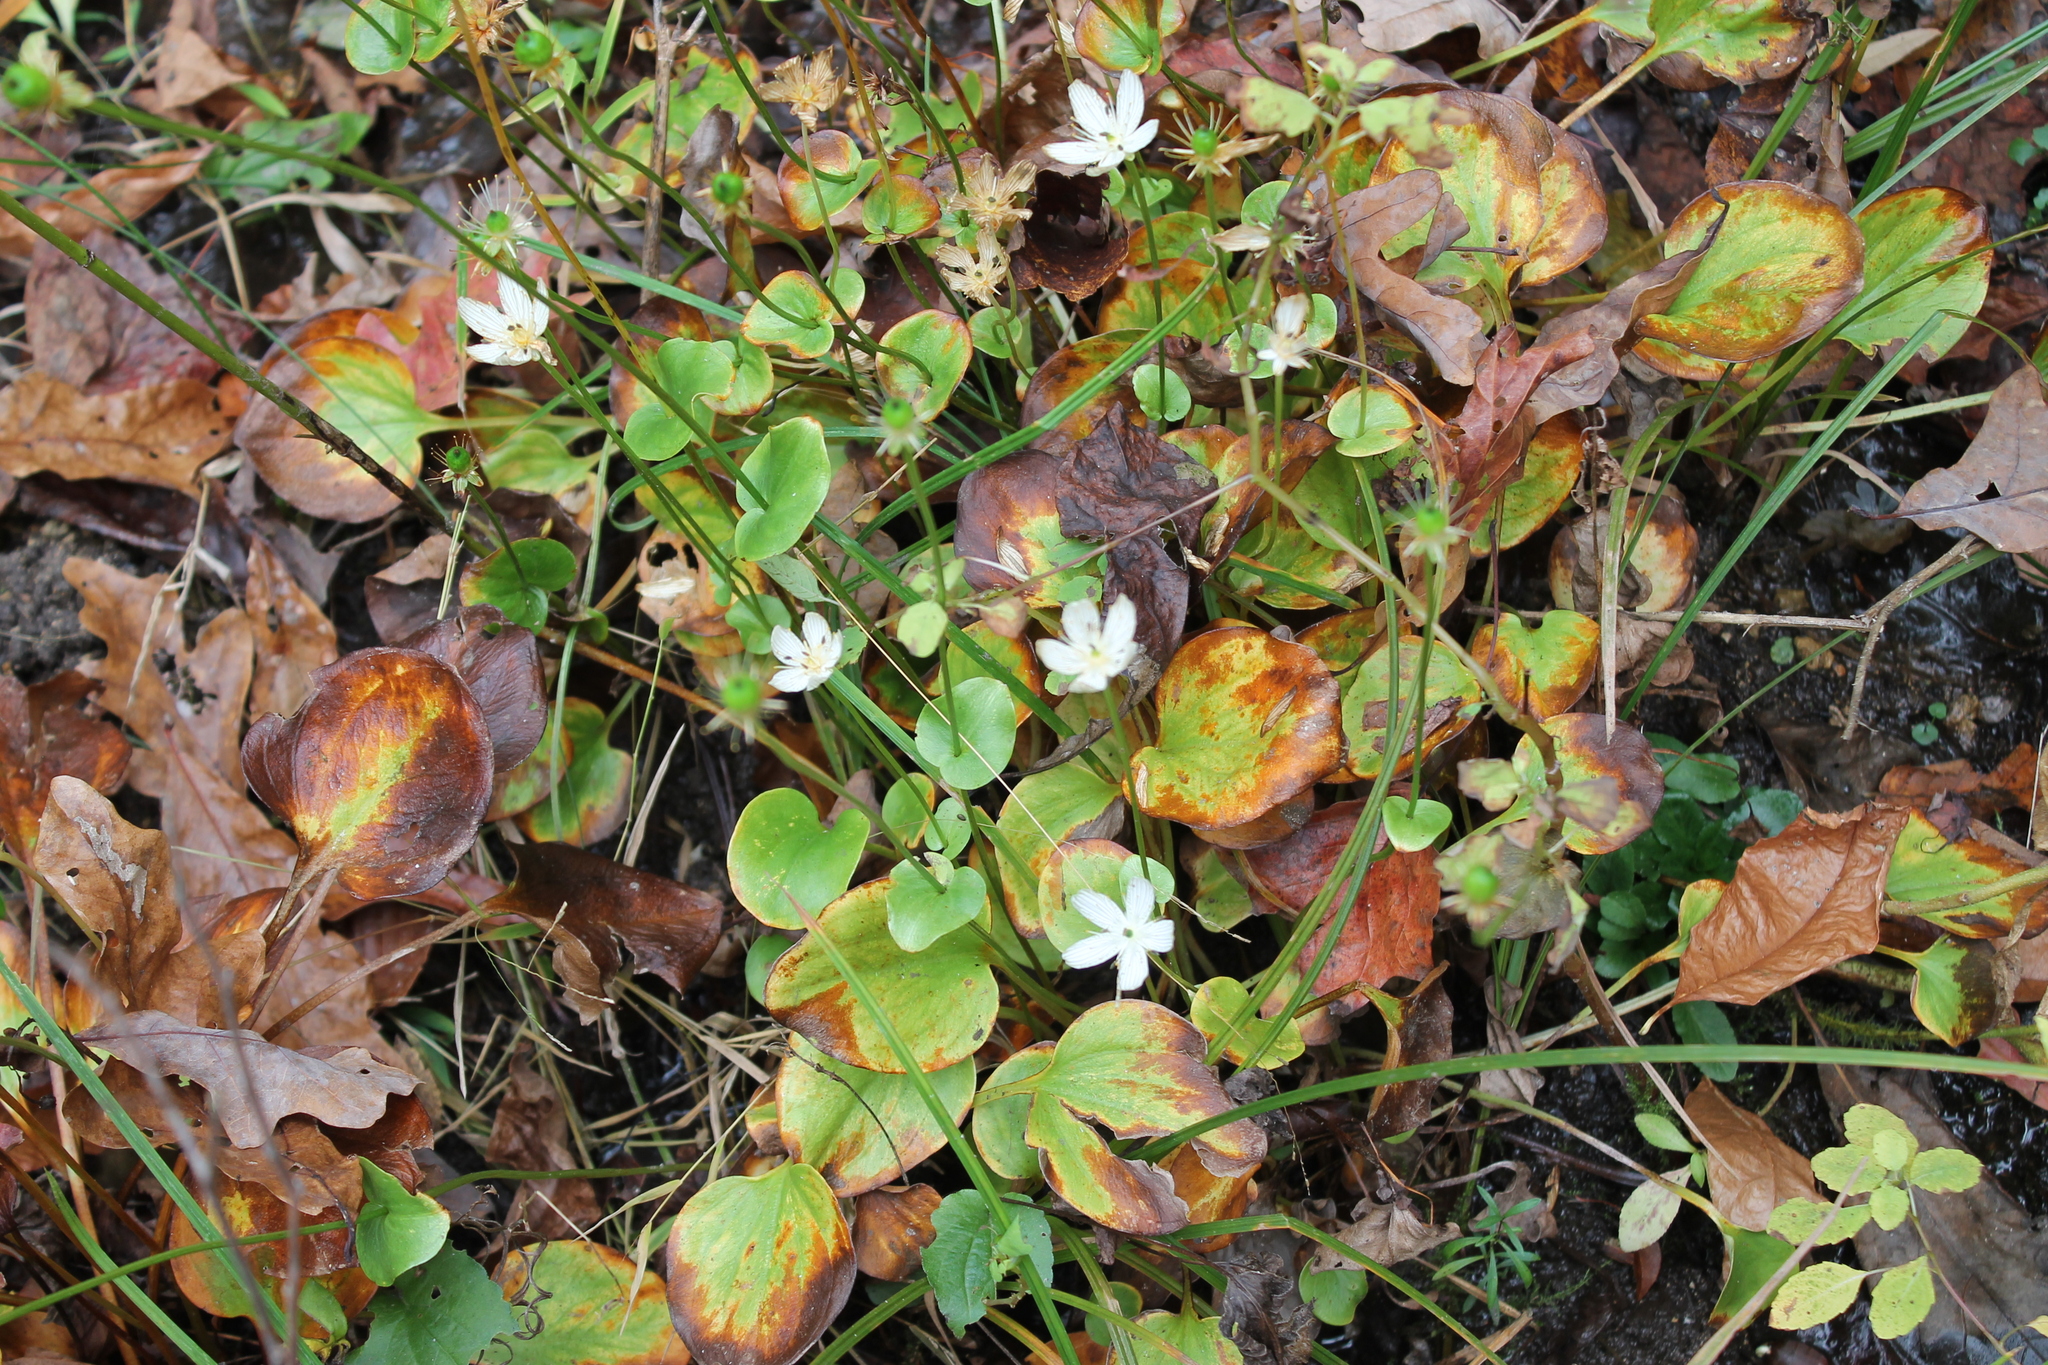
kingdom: Plantae
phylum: Tracheophyta
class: Magnoliopsida
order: Celastrales
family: Parnassiaceae
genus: Parnassia
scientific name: Parnassia grandifolia
